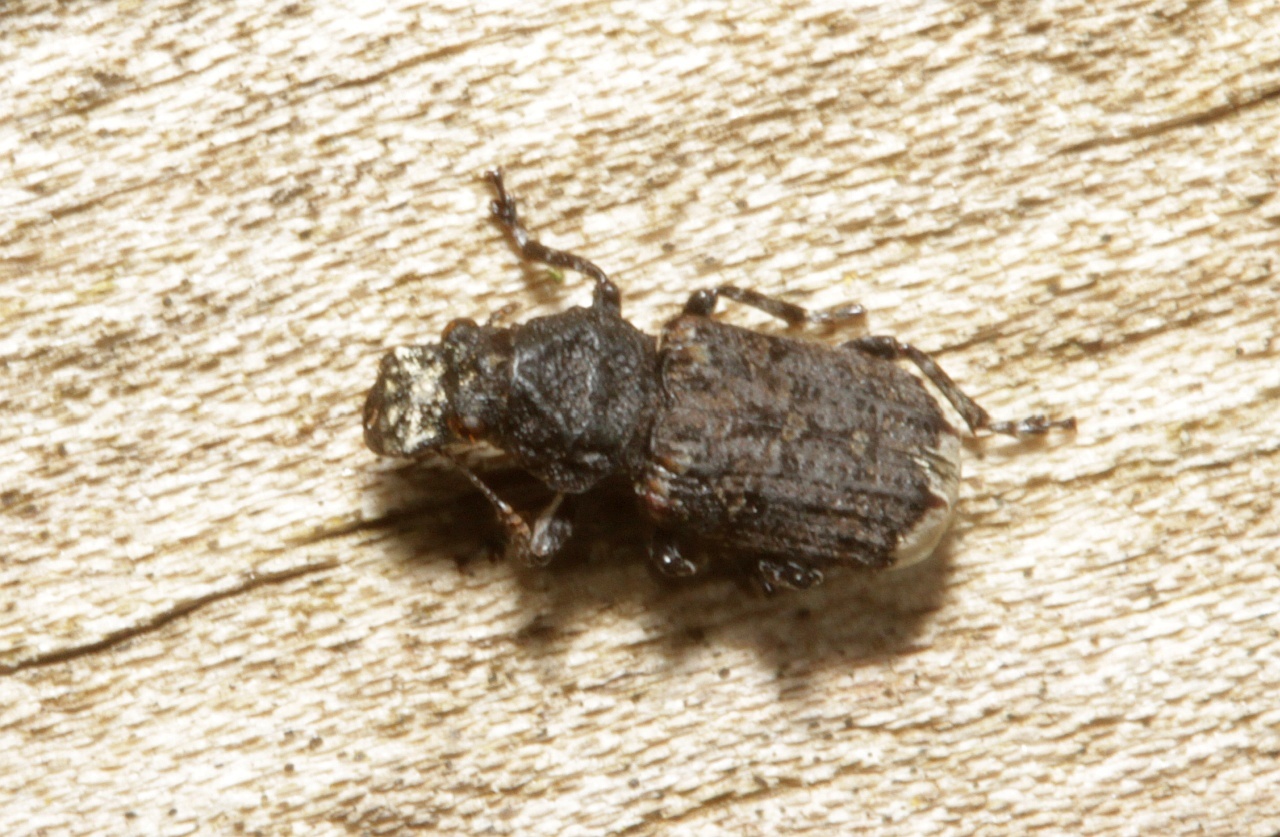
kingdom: Animalia
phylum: Arthropoda
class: Insecta
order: Coleoptera
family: Anthribidae
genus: Platyrhinus
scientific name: Platyrhinus resinosus
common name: Cramp-ball fungus weevil
